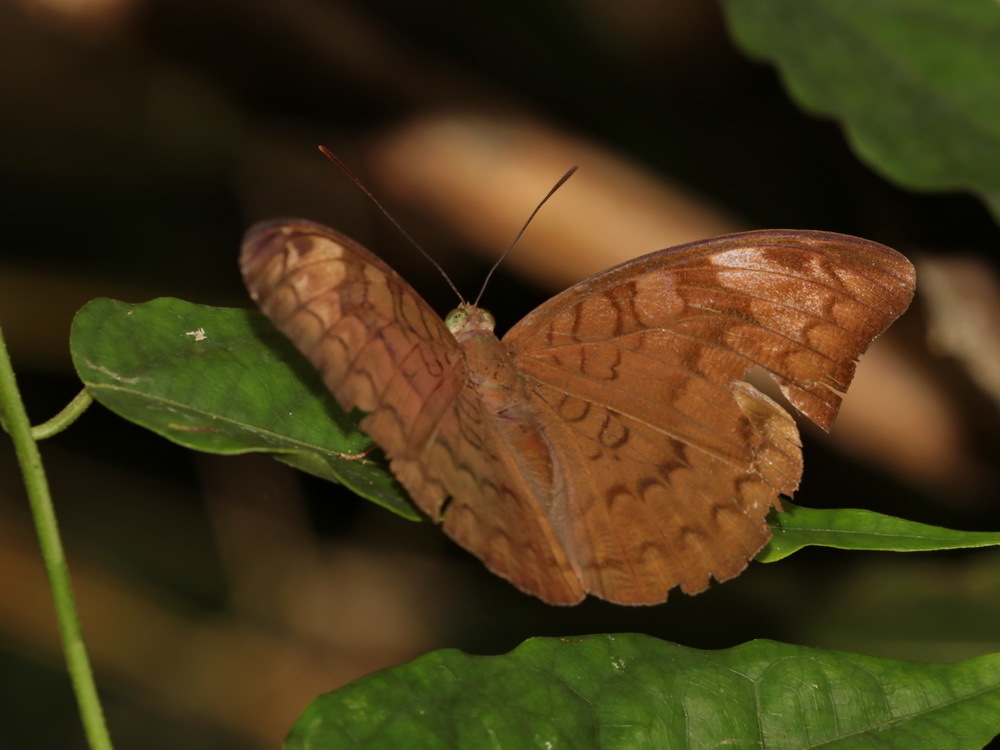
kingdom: Animalia
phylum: Arthropoda
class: Insecta
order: Lepidoptera
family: Nymphalidae
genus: Tanaecia
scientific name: Tanaecia jahnu
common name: Plain earl
